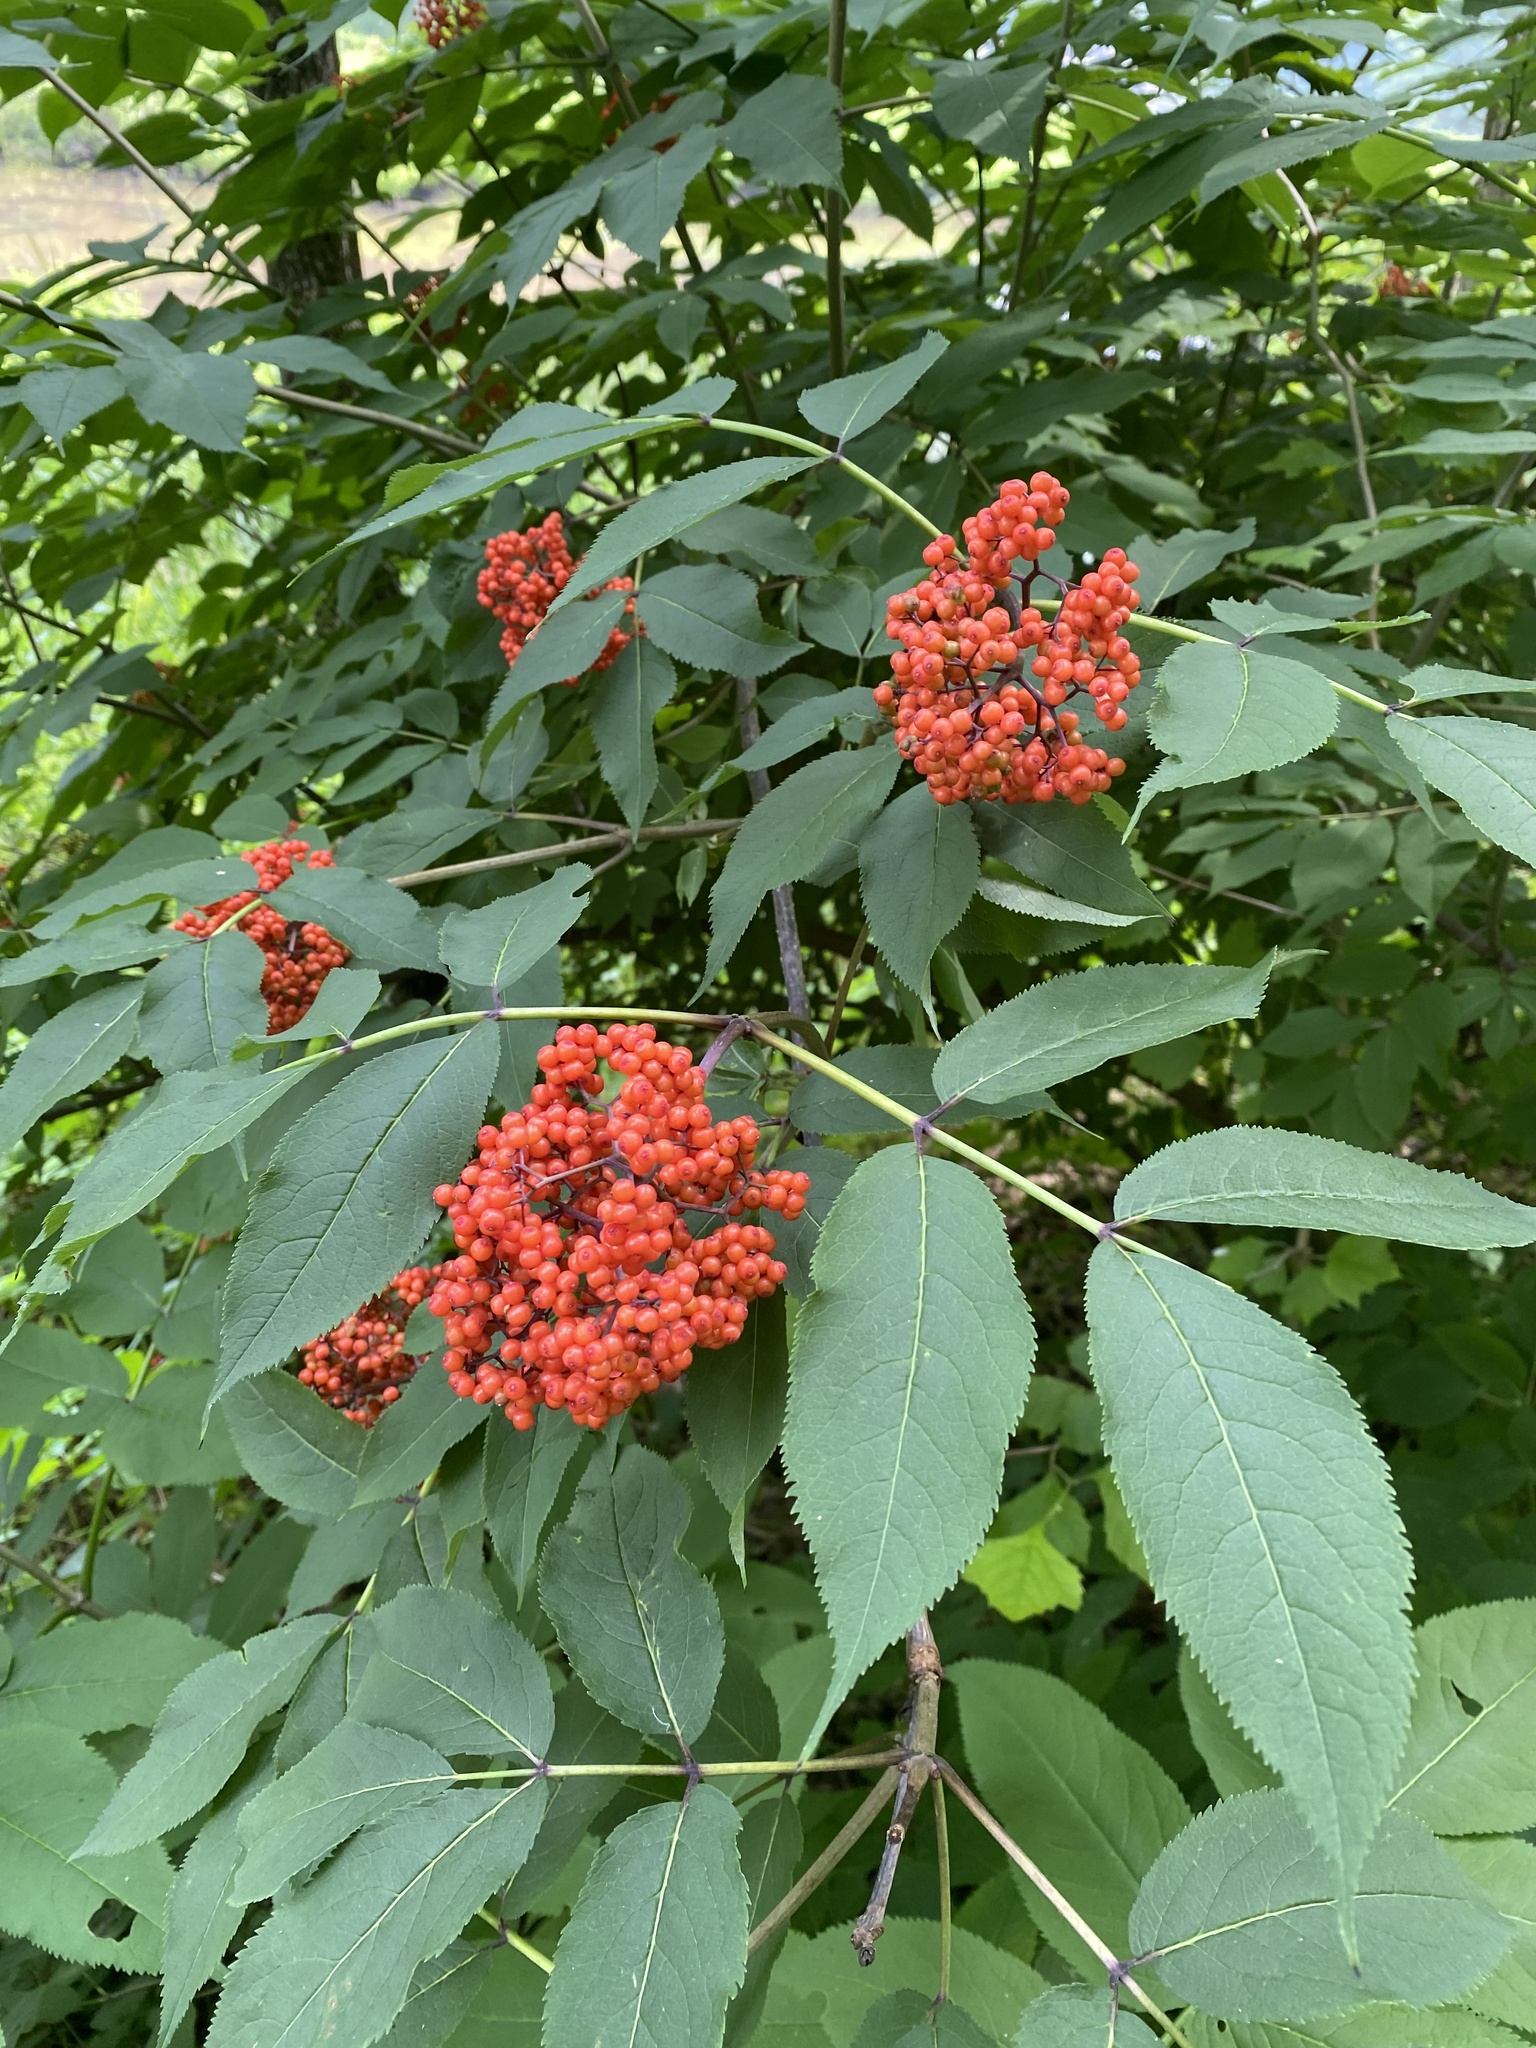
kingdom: Plantae
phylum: Tracheophyta
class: Magnoliopsida
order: Dipsacales
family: Viburnaceae
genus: Sambucus
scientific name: Sambucus racemosa
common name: Red-berried elder
